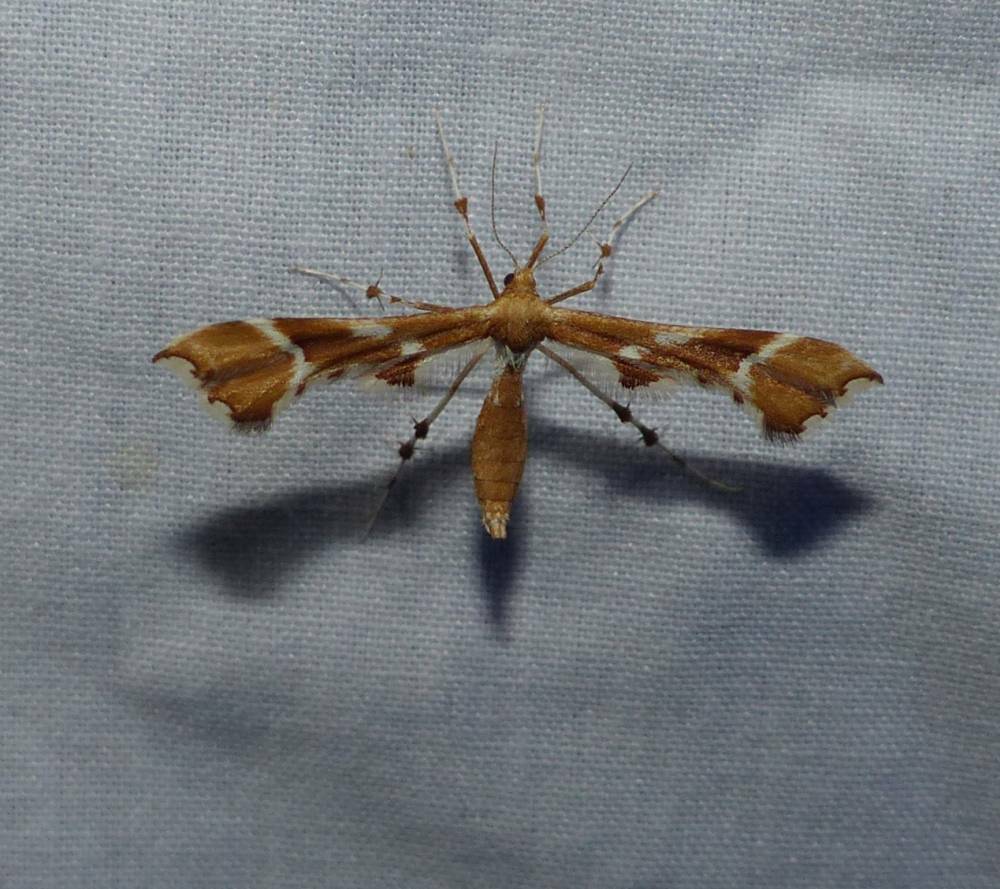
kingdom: Animalia
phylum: Arthropoda
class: Insecta
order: Lepidoptera
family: Pterophoridae
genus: Cnaemidophorus
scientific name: Cnaemidophorus rhododactyla
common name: Rose plume
